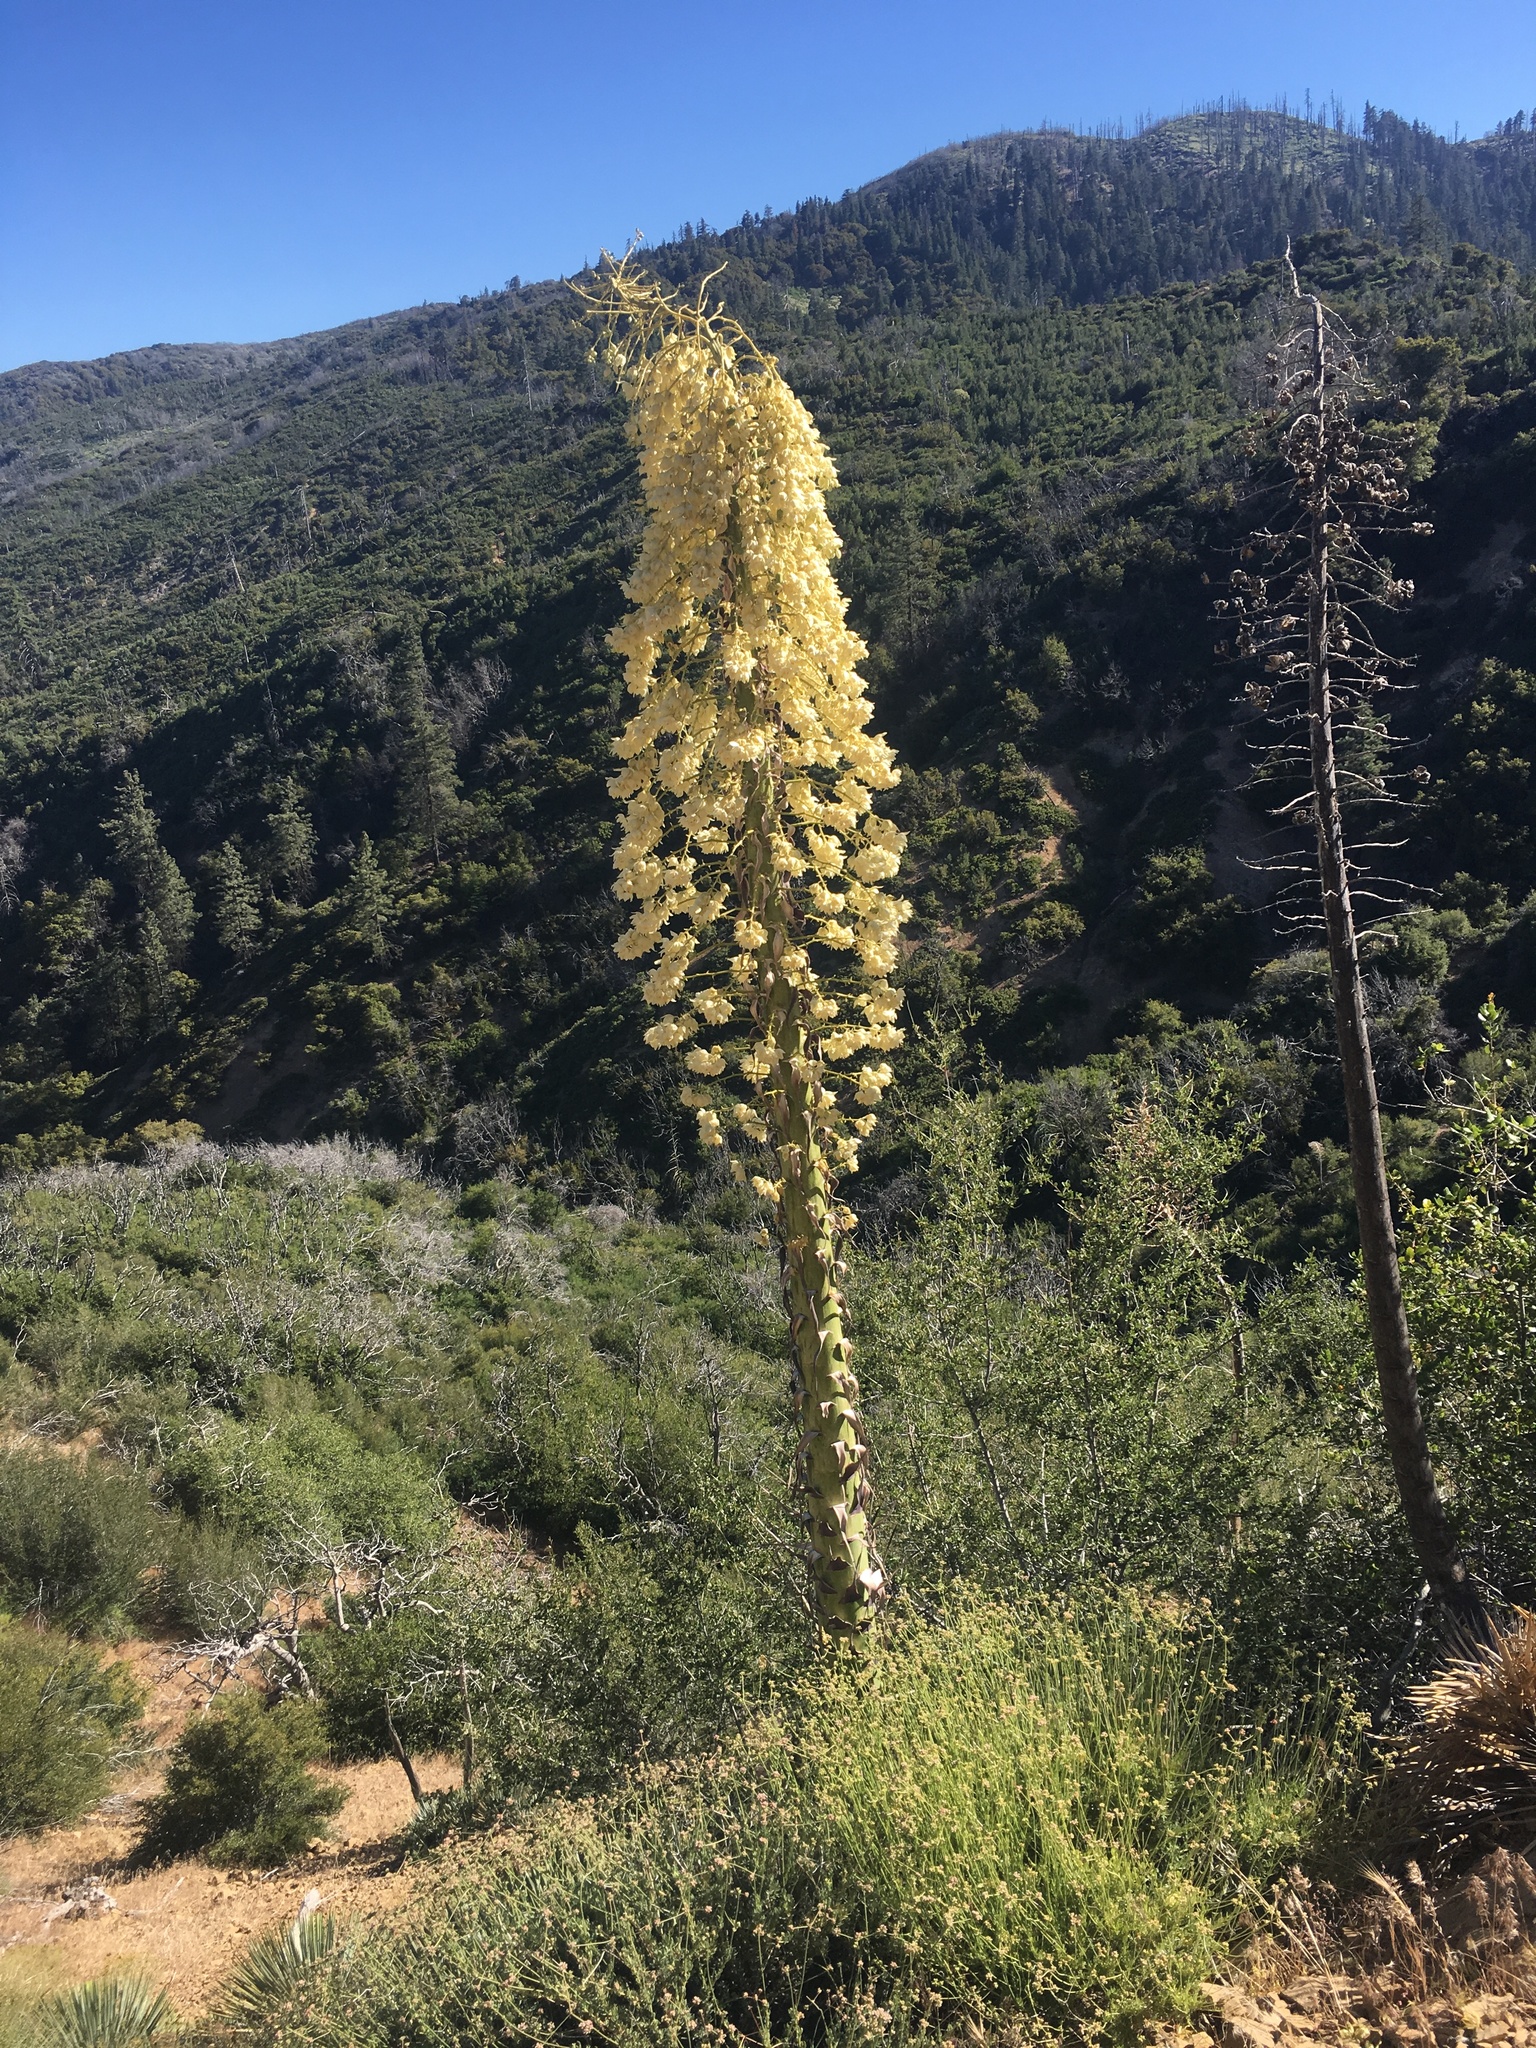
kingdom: Plantae
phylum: Tracheophyta
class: Liliopsida
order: Asparagales
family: Asparagaceae
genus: Hesperoyucca
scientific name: Hesperoyucca whipplei
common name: Our lord's-candle
